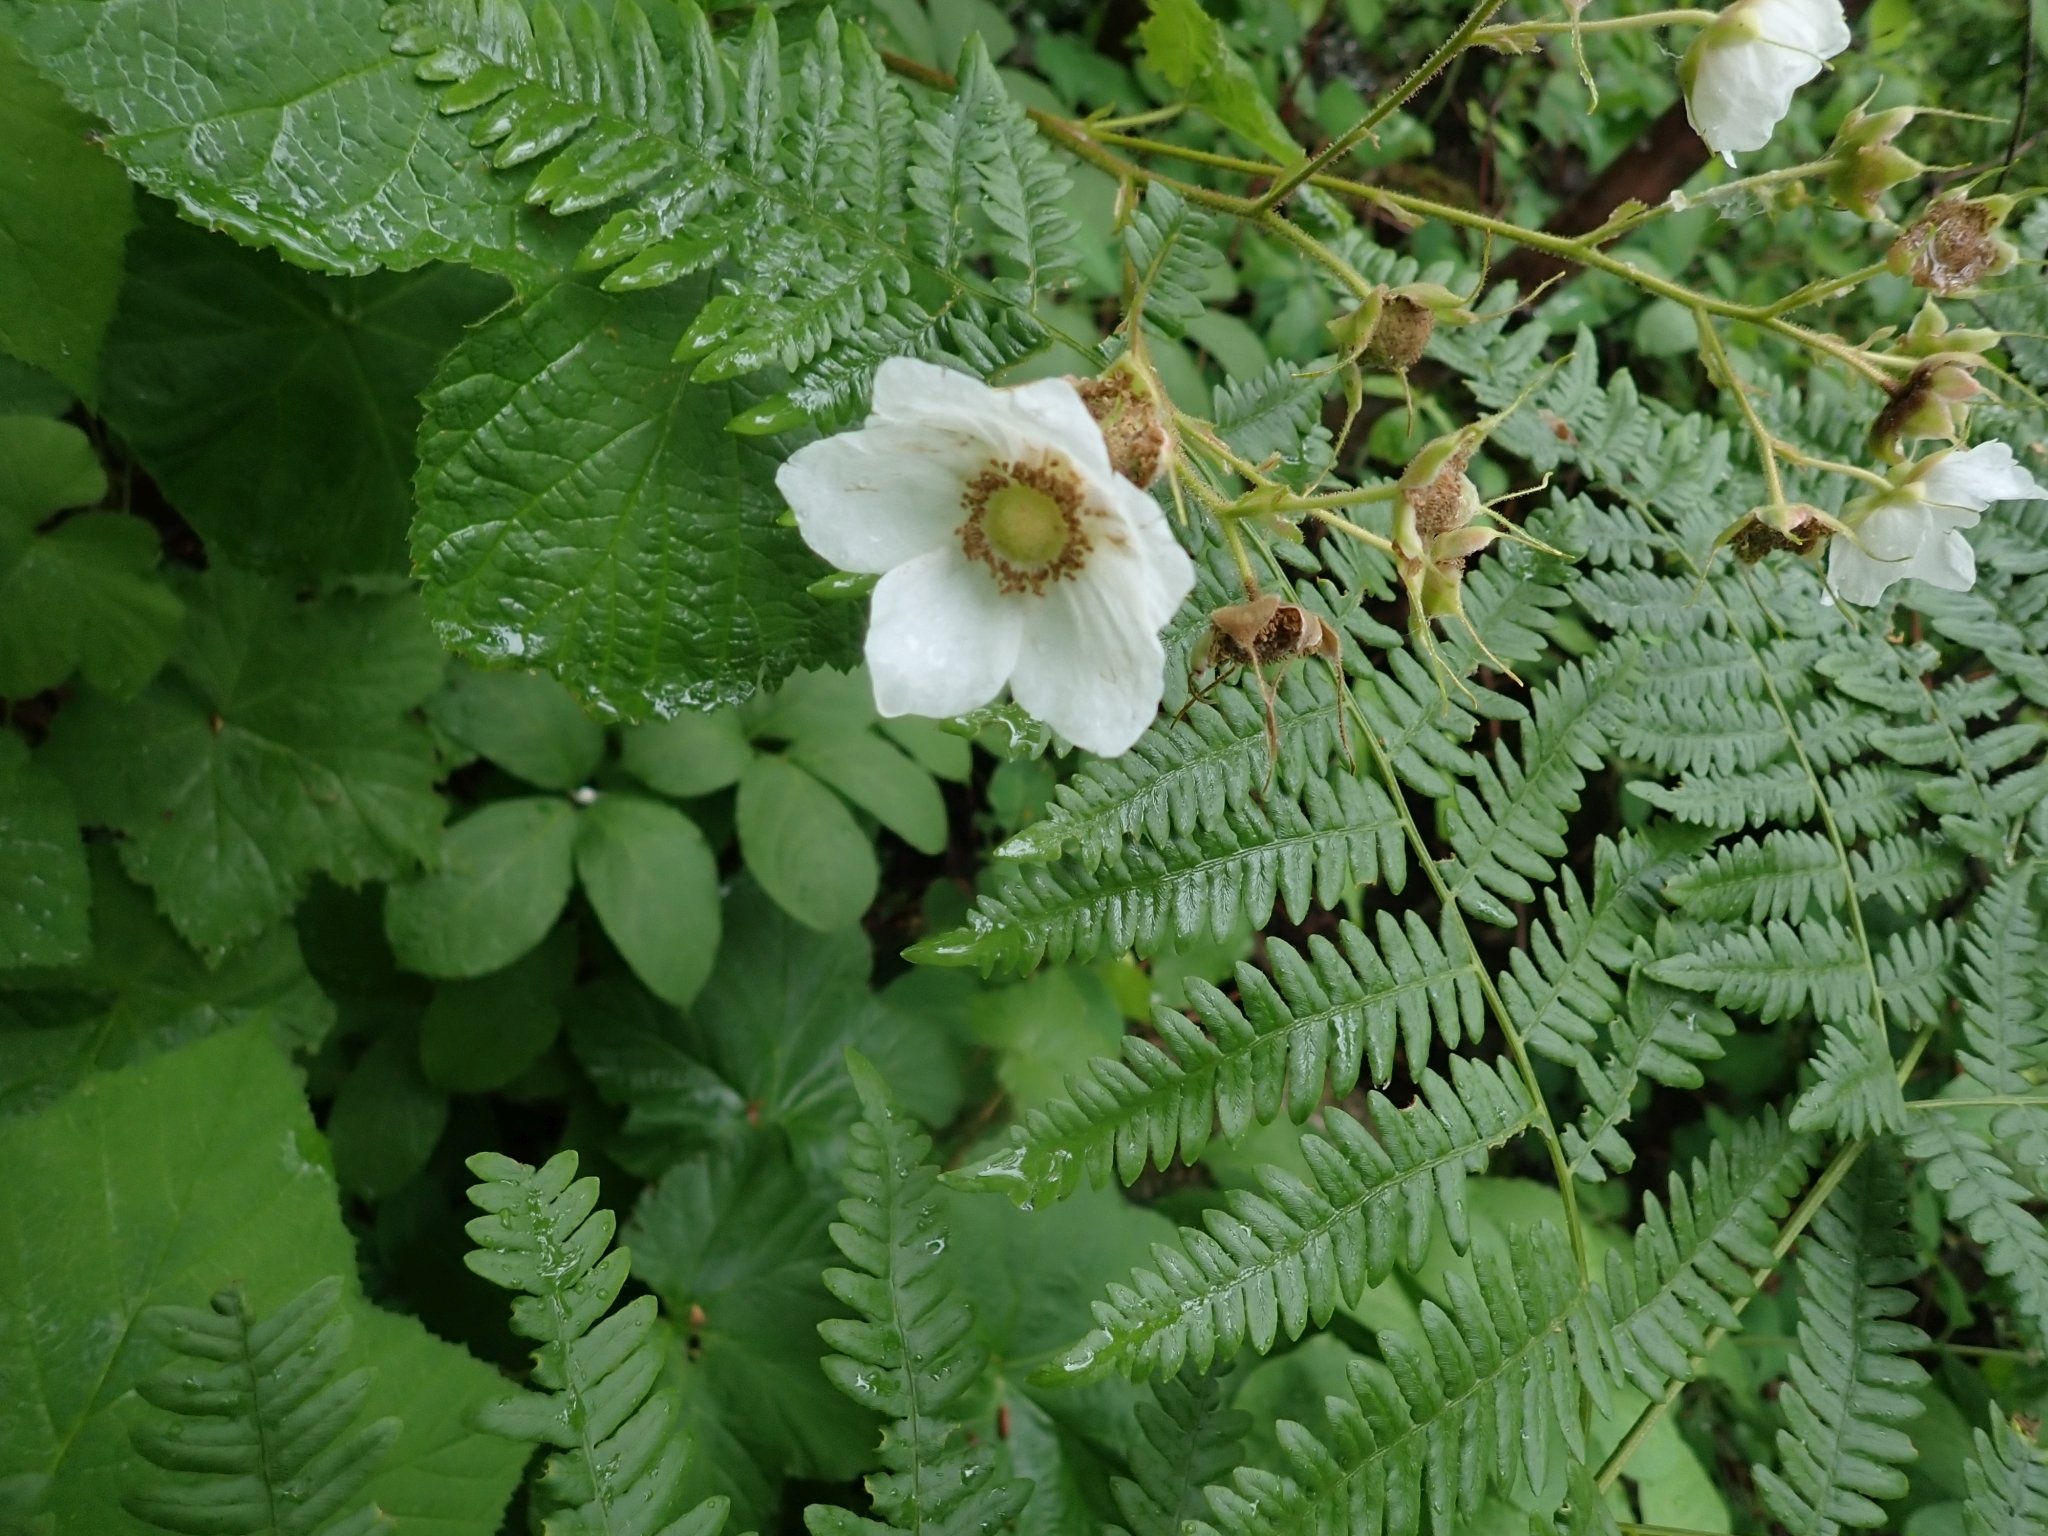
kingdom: Plantae
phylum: Tracheophyta
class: Magnoliopsida
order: Rosales
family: Rosaceae
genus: Rubus
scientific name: Rubus parviflorus
